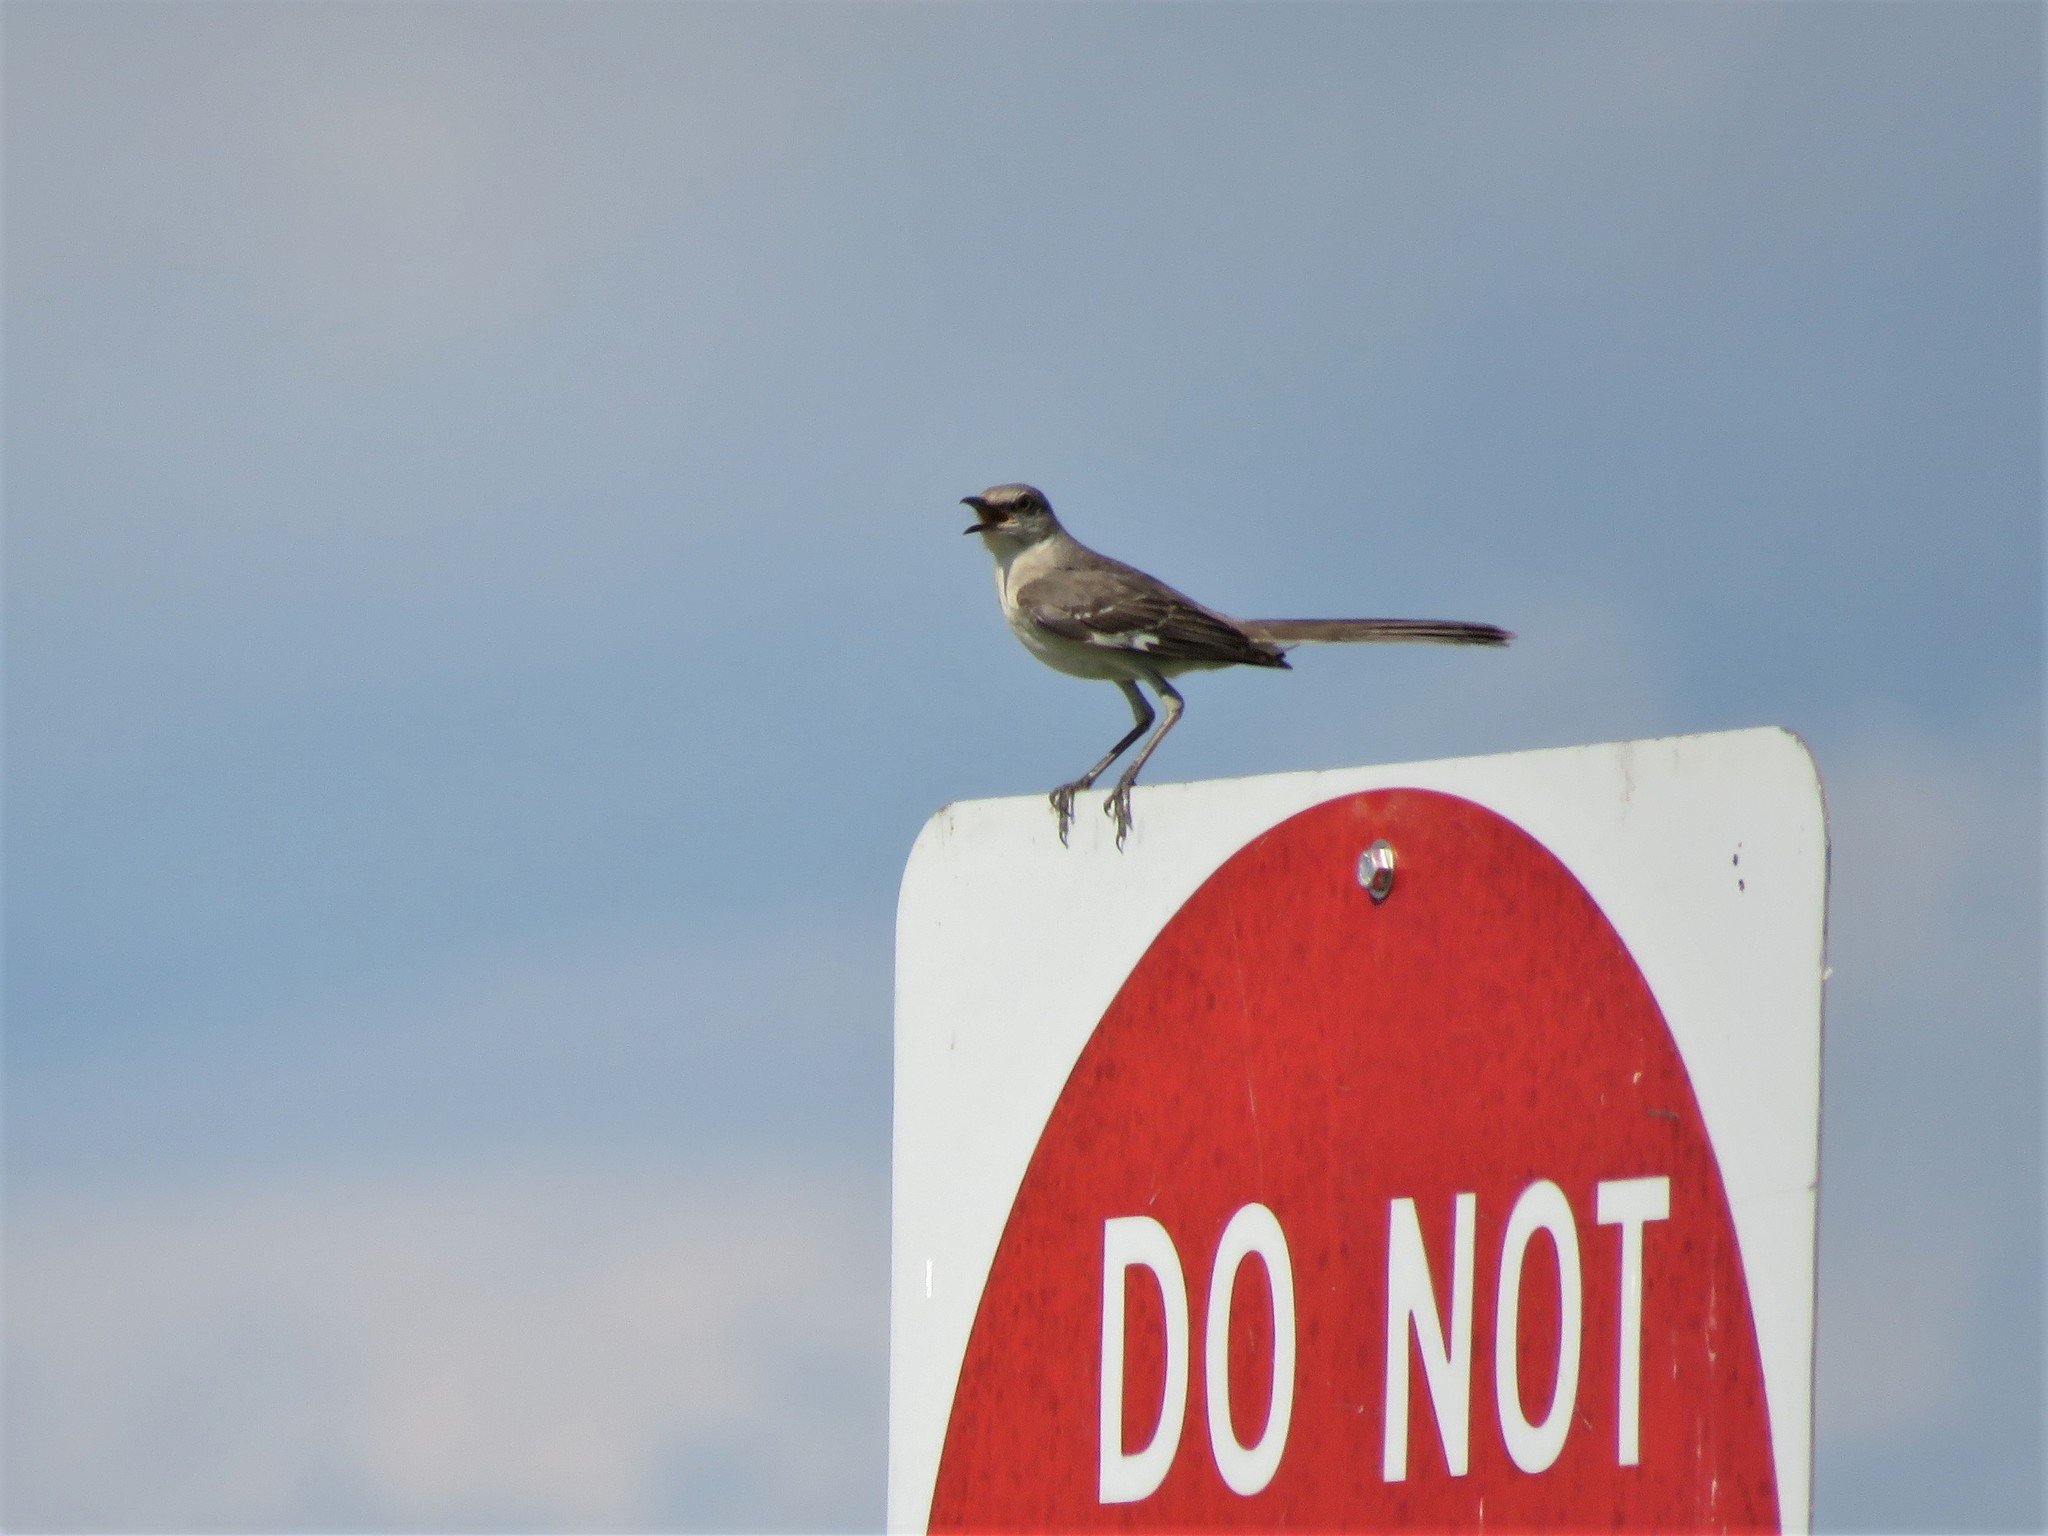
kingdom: Animalia
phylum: Chordata
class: Aves
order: Passeriformes
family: Mimidae
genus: Mimus
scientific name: Mimus polyglottos
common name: Northern mockingbird
